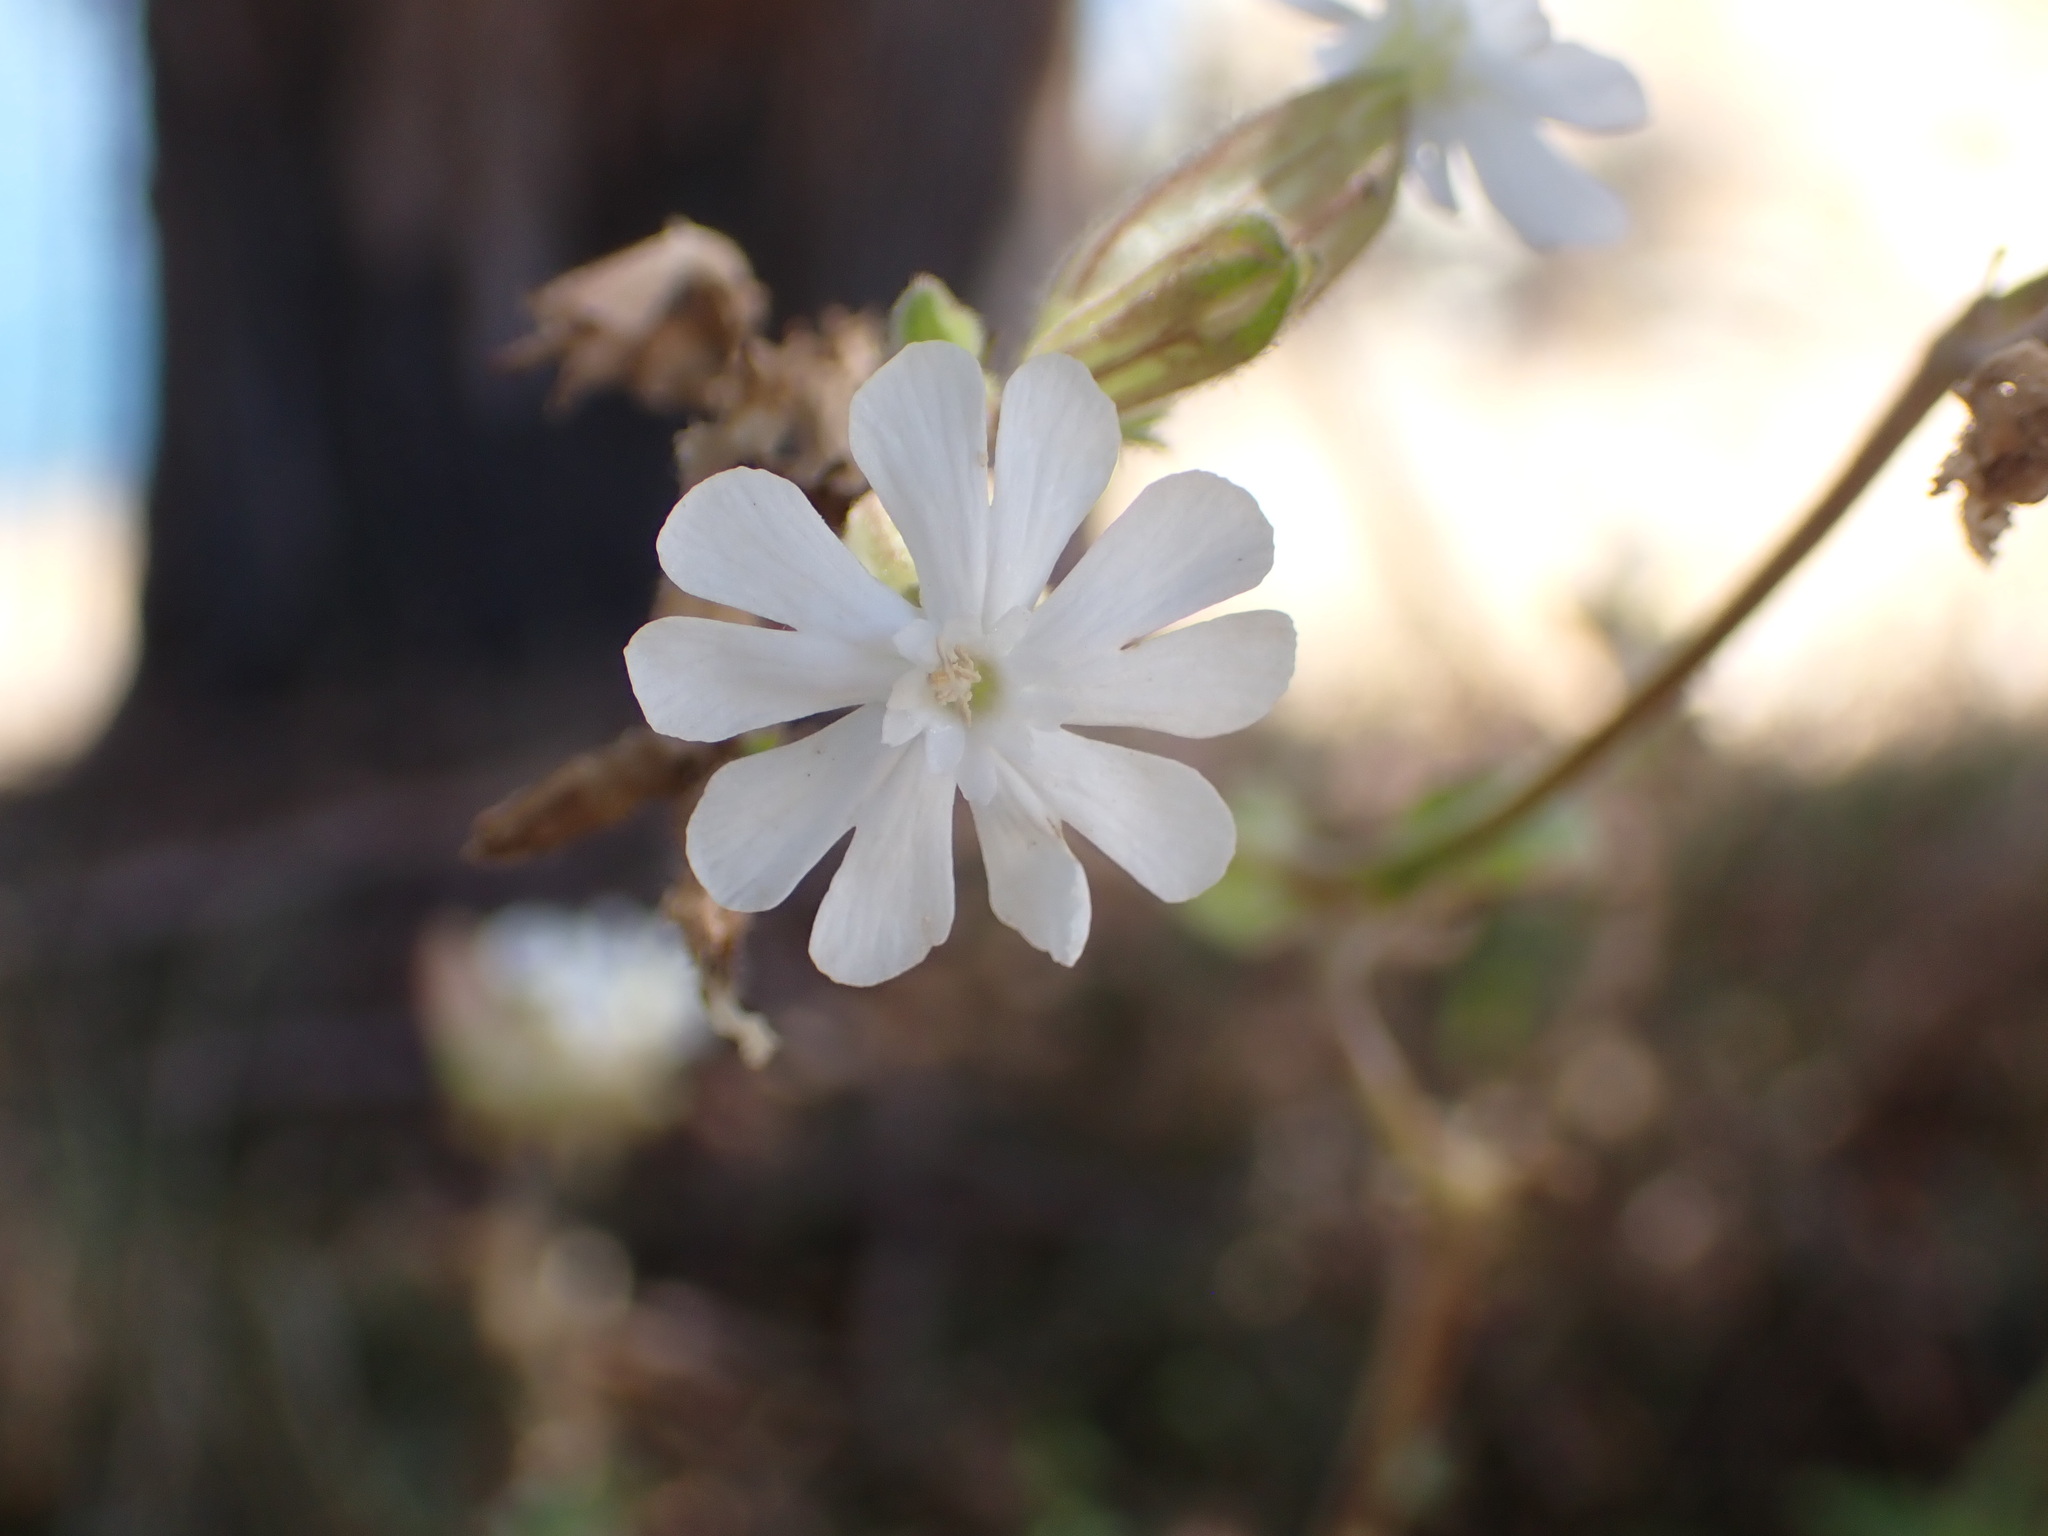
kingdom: Plantae
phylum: Tracheophyta
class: Magnoliopsida
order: Caryophyllales
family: Caryophyllaceae
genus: Silene
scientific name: Silene latifolia
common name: White campion
